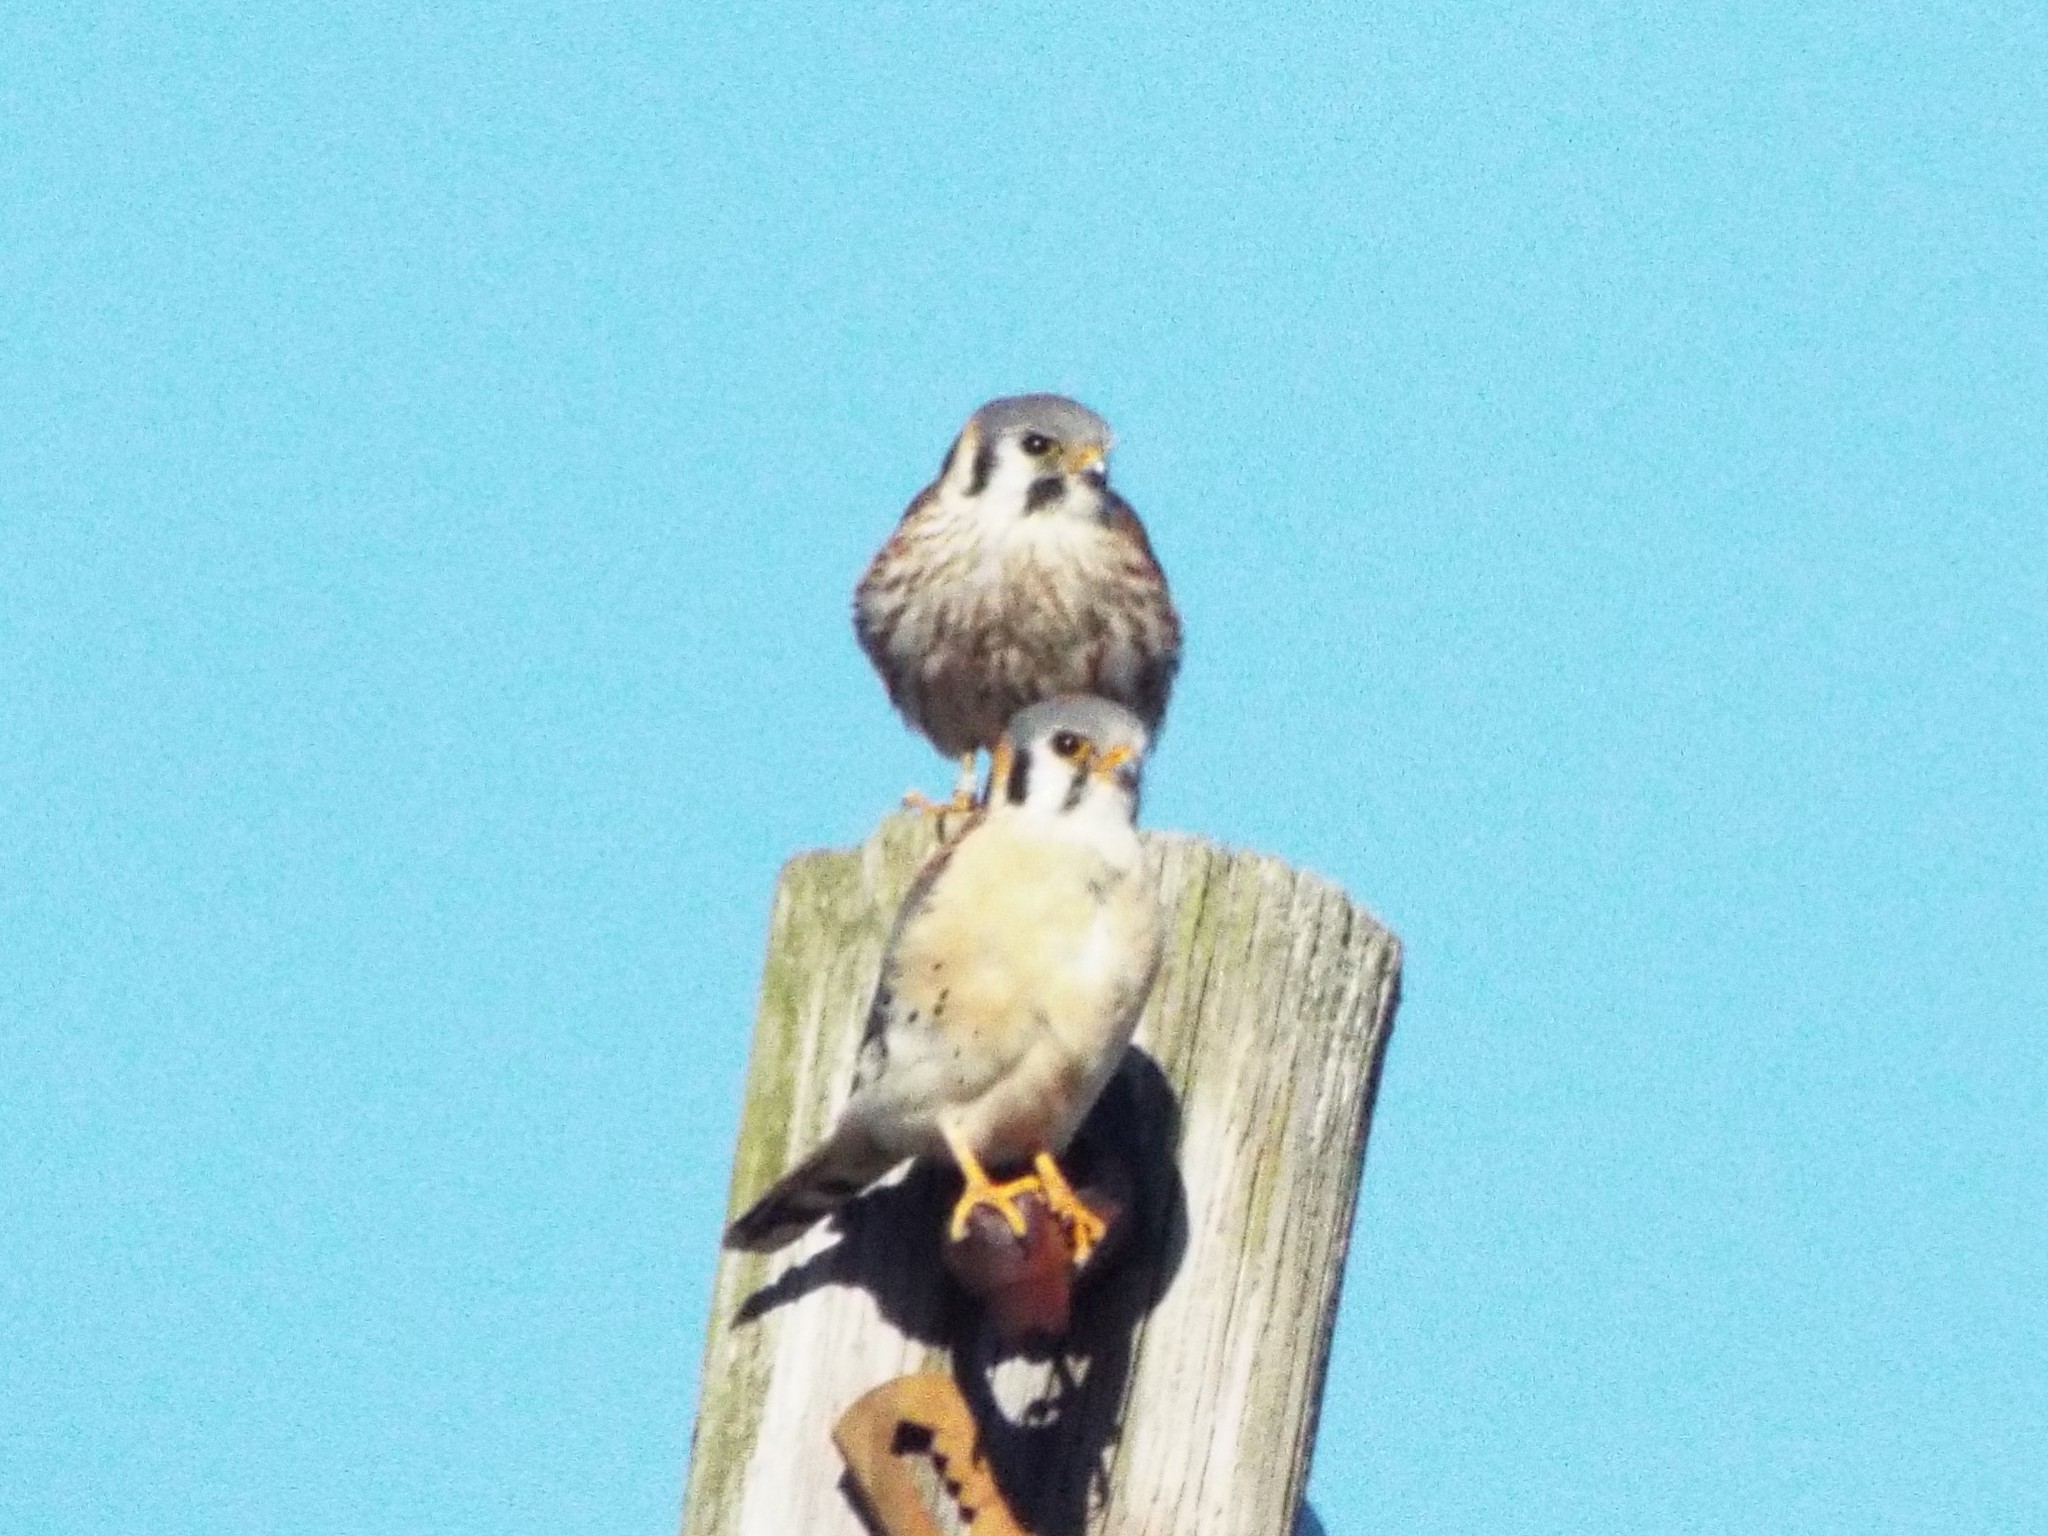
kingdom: Animalia
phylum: Chordata
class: Aves
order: Falconiformes
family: Falconidae
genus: Falco
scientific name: Falco sparverius
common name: American kestrel
